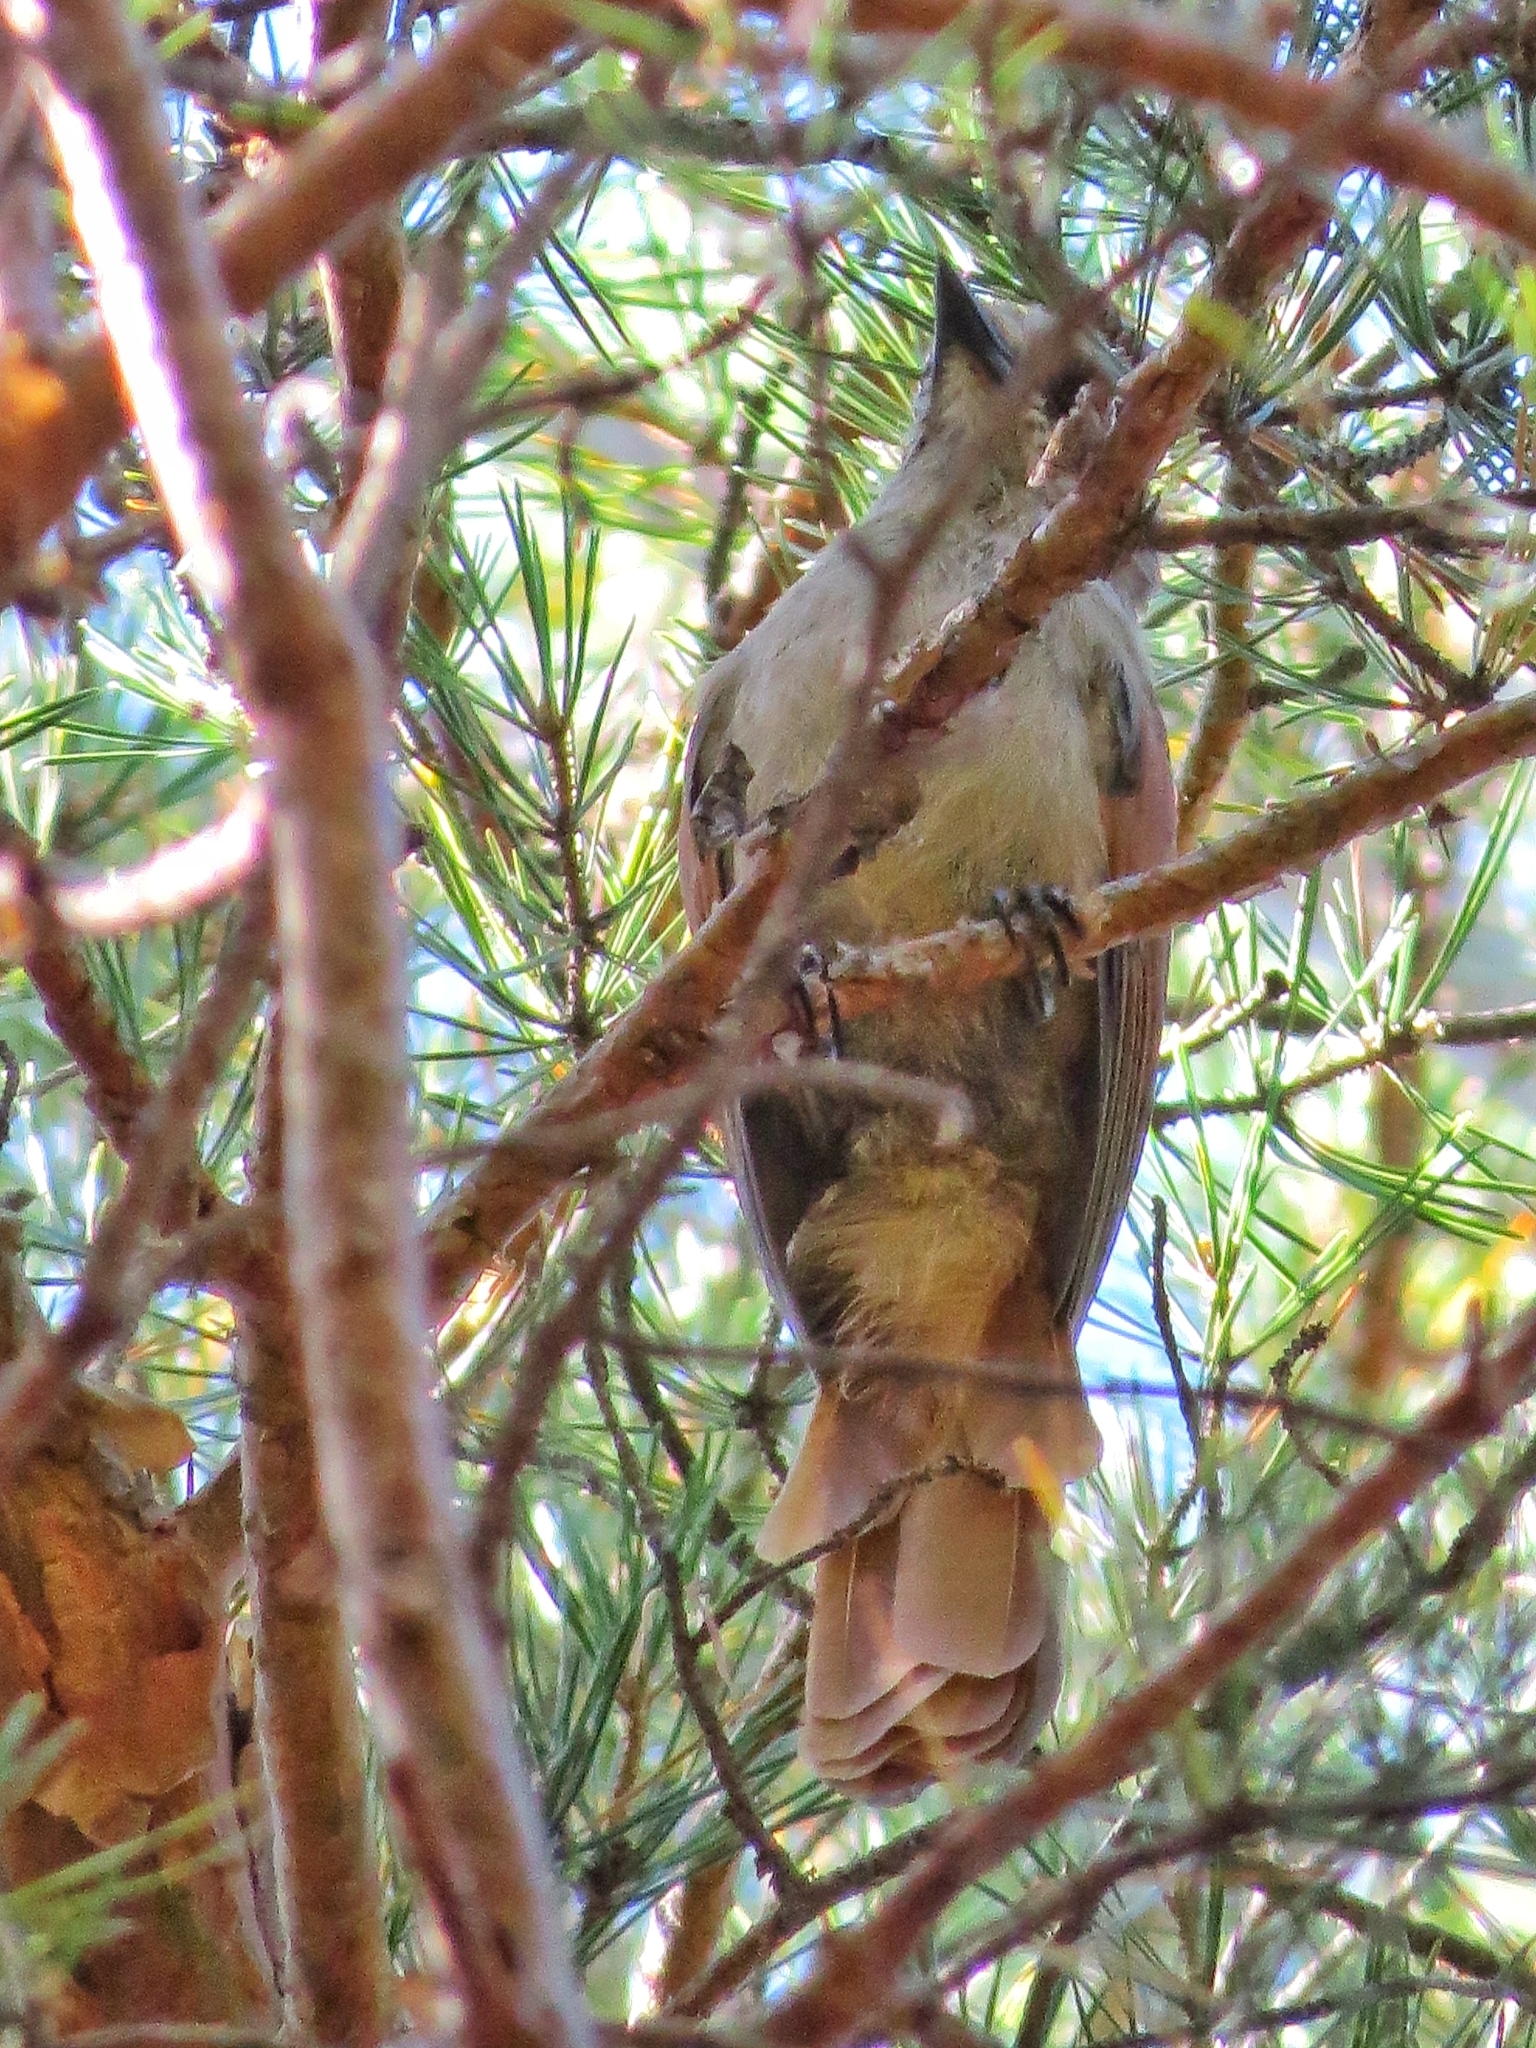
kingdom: Animalia
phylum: Chordata
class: Aves
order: Passeriformes
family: Corvidae
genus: Perisoreus
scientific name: Perisoreus infaustus
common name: Siberian jay
